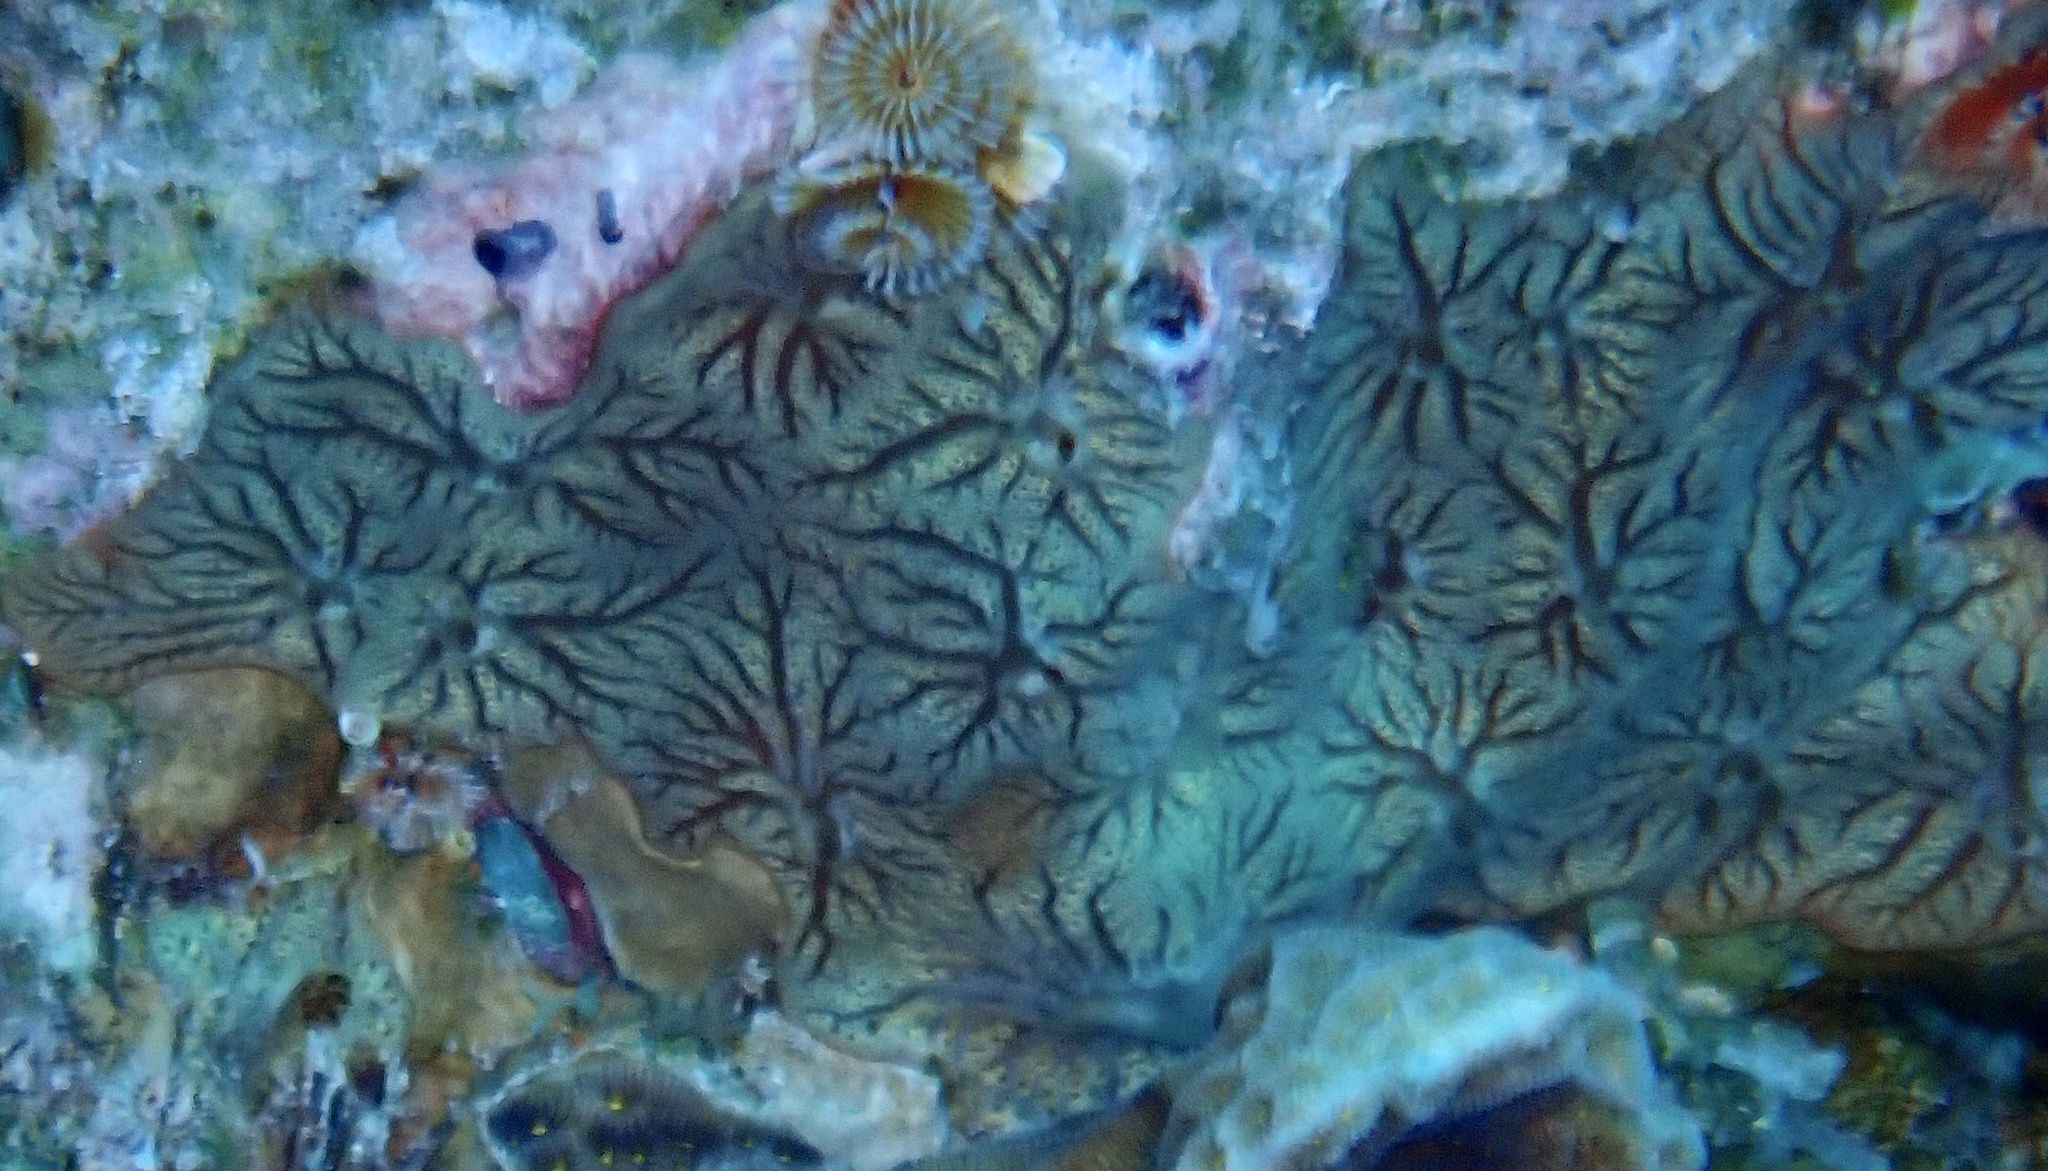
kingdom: Animalia
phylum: Porifera
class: Demospongiae
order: Poecilosclerida
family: Microcionidae
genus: Clathria
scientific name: Clathria curacaoensis
